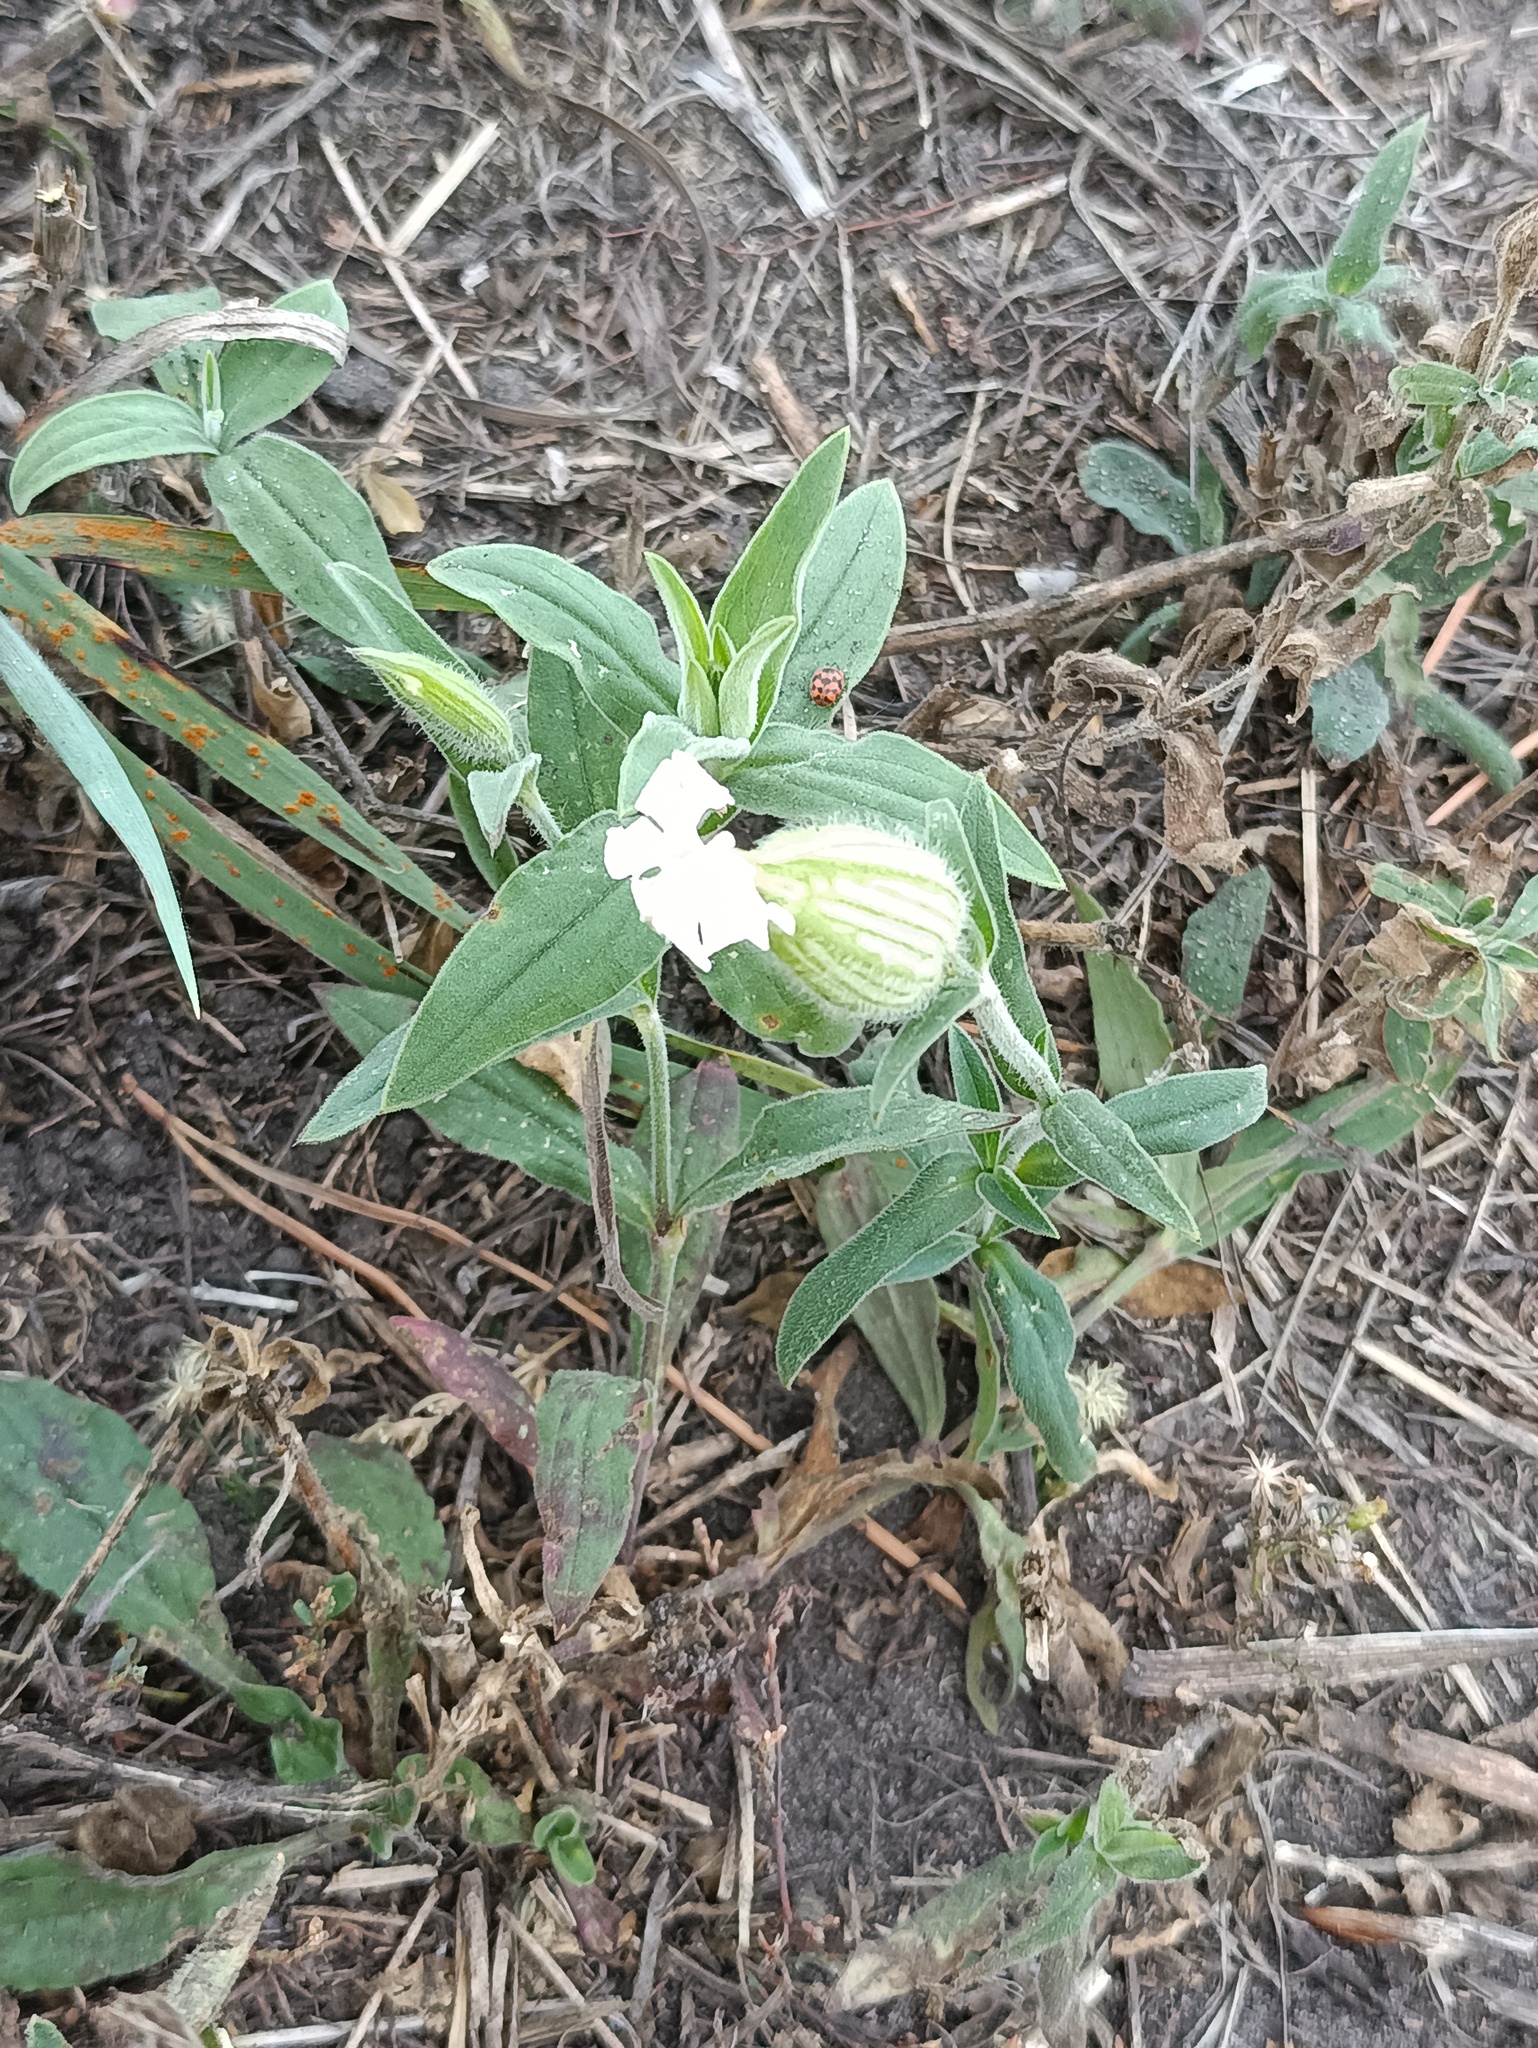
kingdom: Plantae
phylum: Tracheophyta
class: Magnoliopsida
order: Caryophyllales
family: Caryophyllaceae
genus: Silene
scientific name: Silene latifolia
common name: White campion
